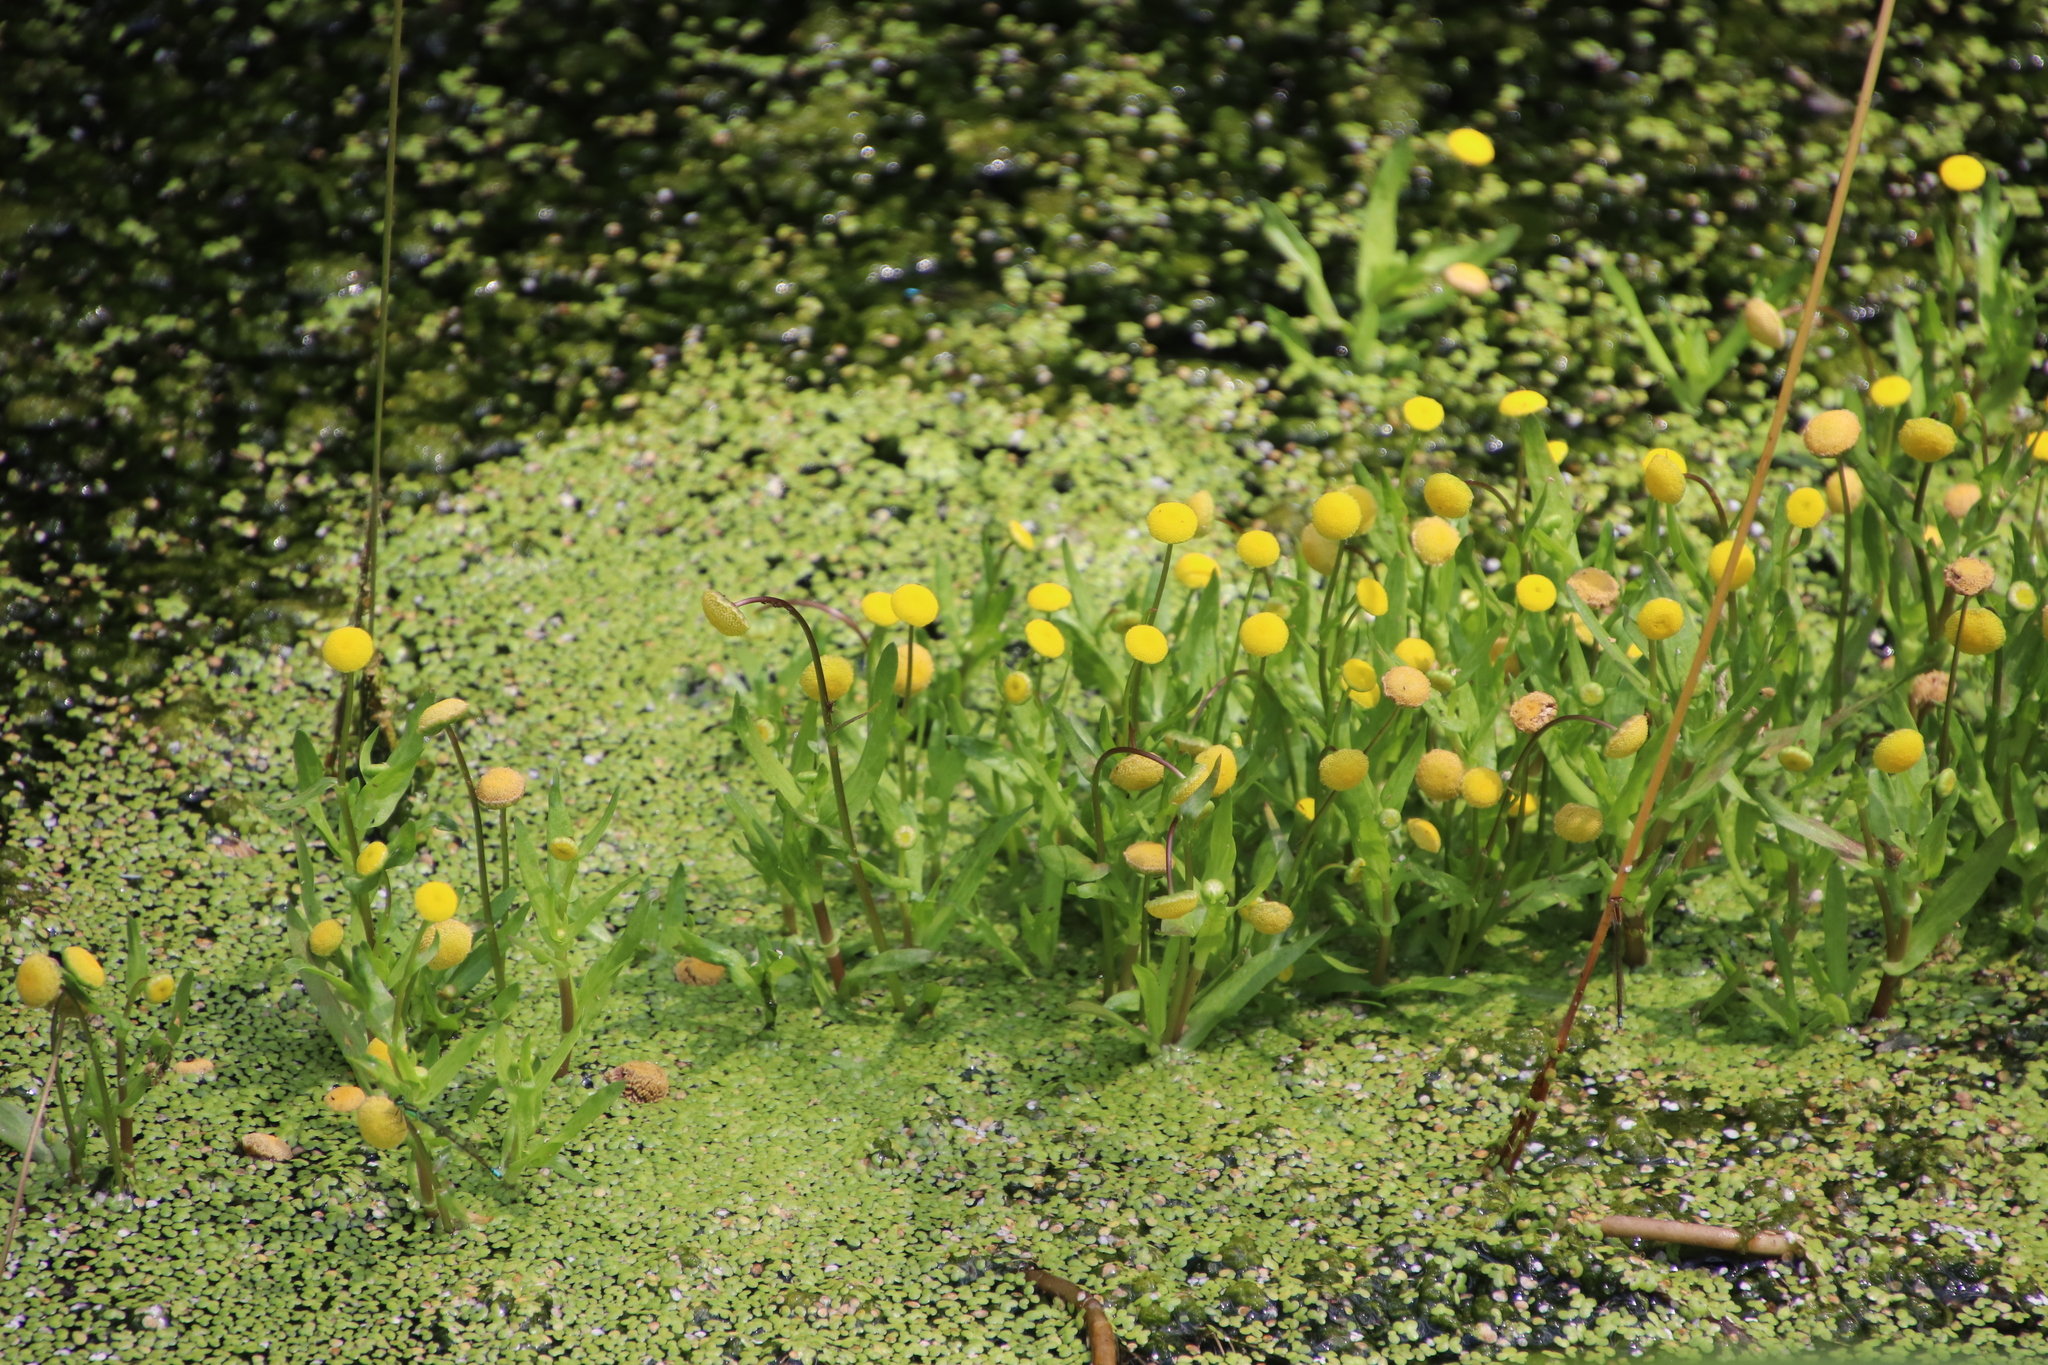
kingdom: Plantae
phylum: Tracheophyta
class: Magnoliopsida
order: Asterales
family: Asteraceae
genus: Cotula
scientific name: Cotula coronopifolia
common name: Buttonweed
